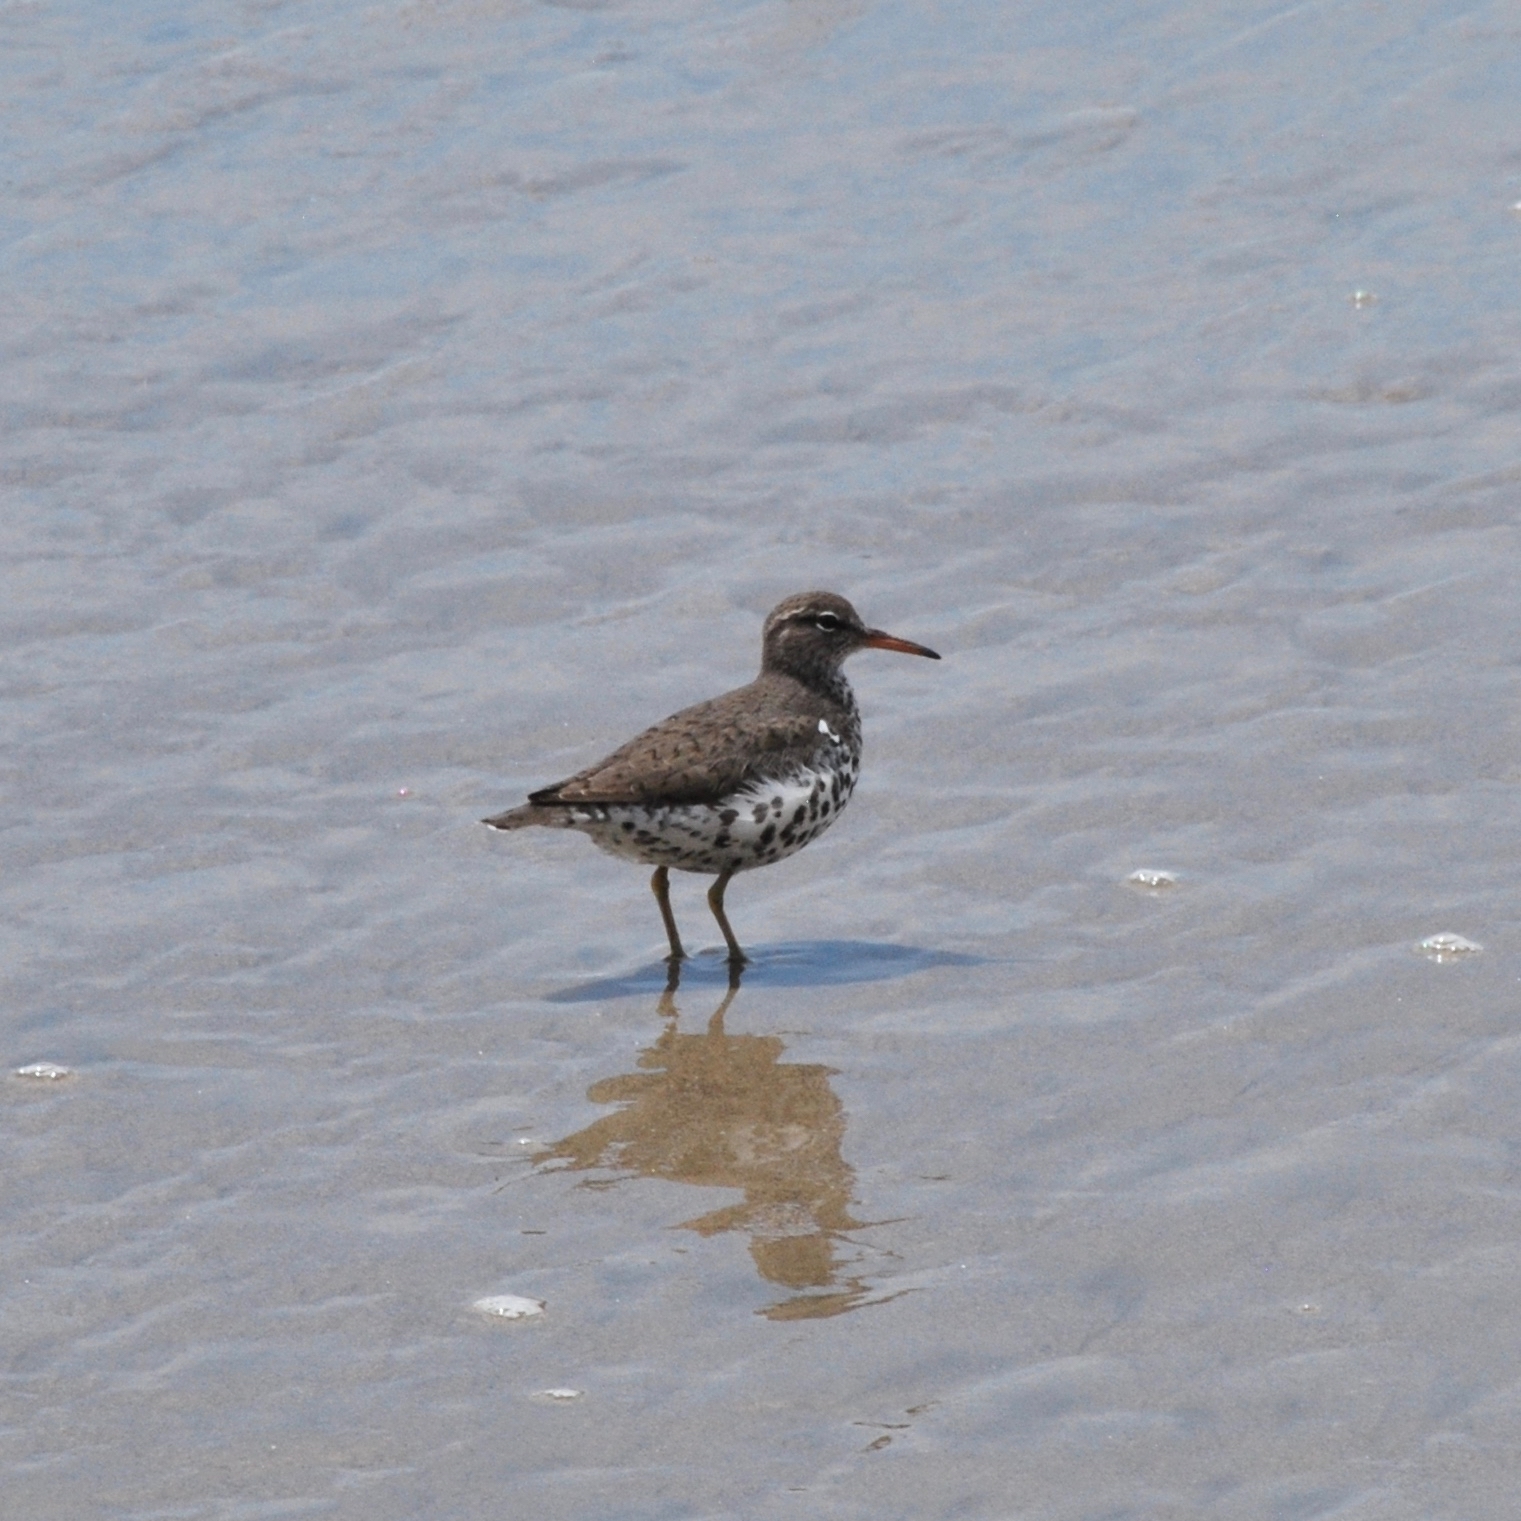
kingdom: Animalia
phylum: Chordata
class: Aves
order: Charadriiformes
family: Scolopacidae
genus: Actitis
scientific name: Actitis macularius
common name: Spotted sandpiper
